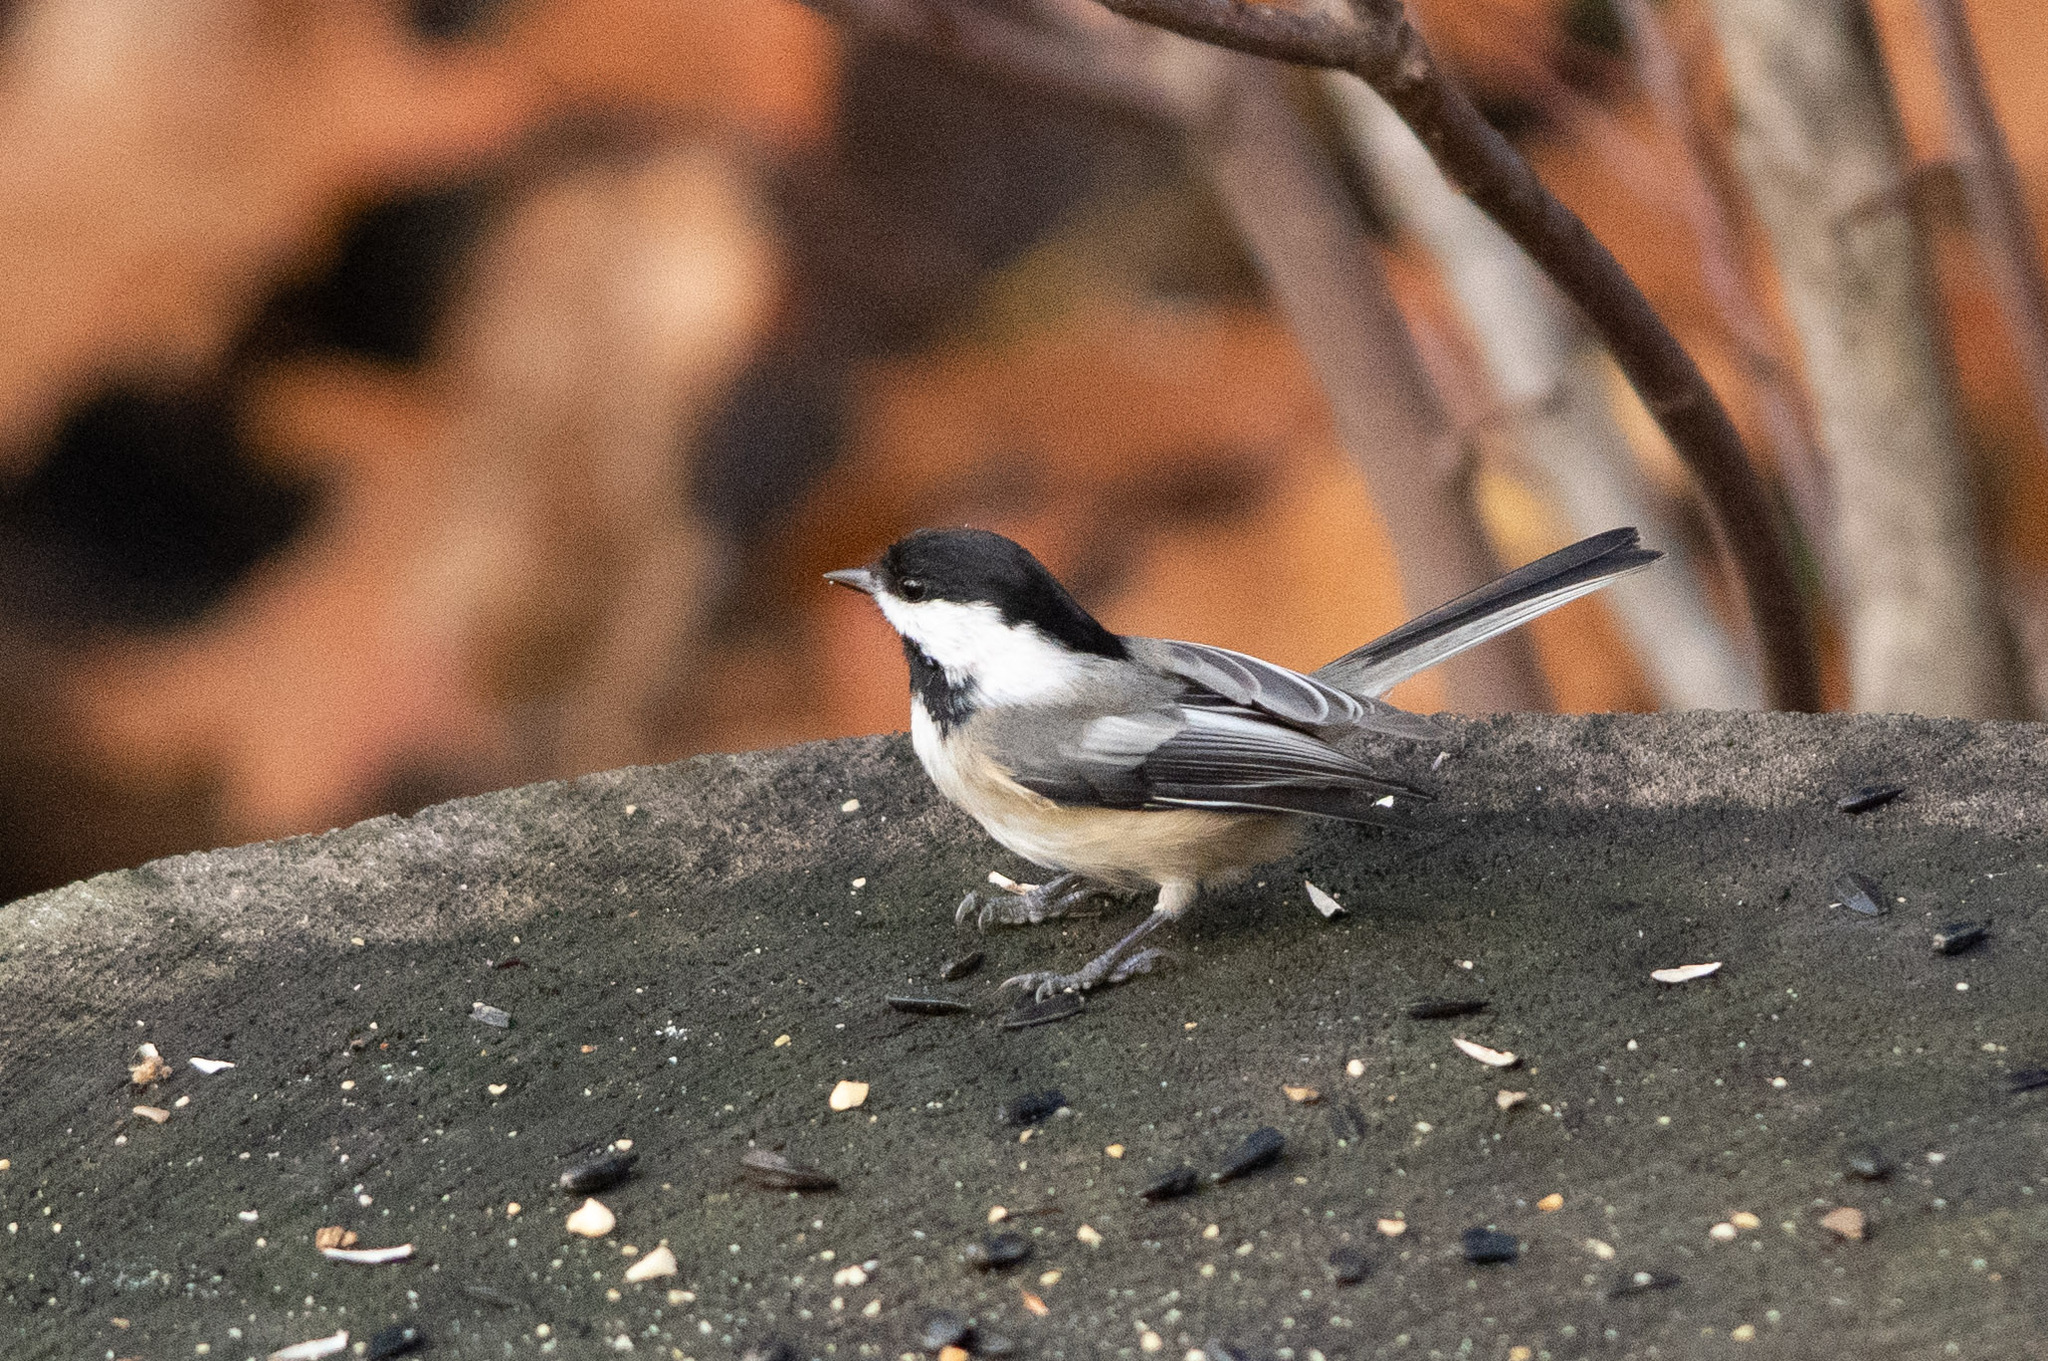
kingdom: Animalia
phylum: Chordata
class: Aves
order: Passeriformes
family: Paridae
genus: Poecile
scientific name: Poecile atricapillus
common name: Black-capped chickadee
